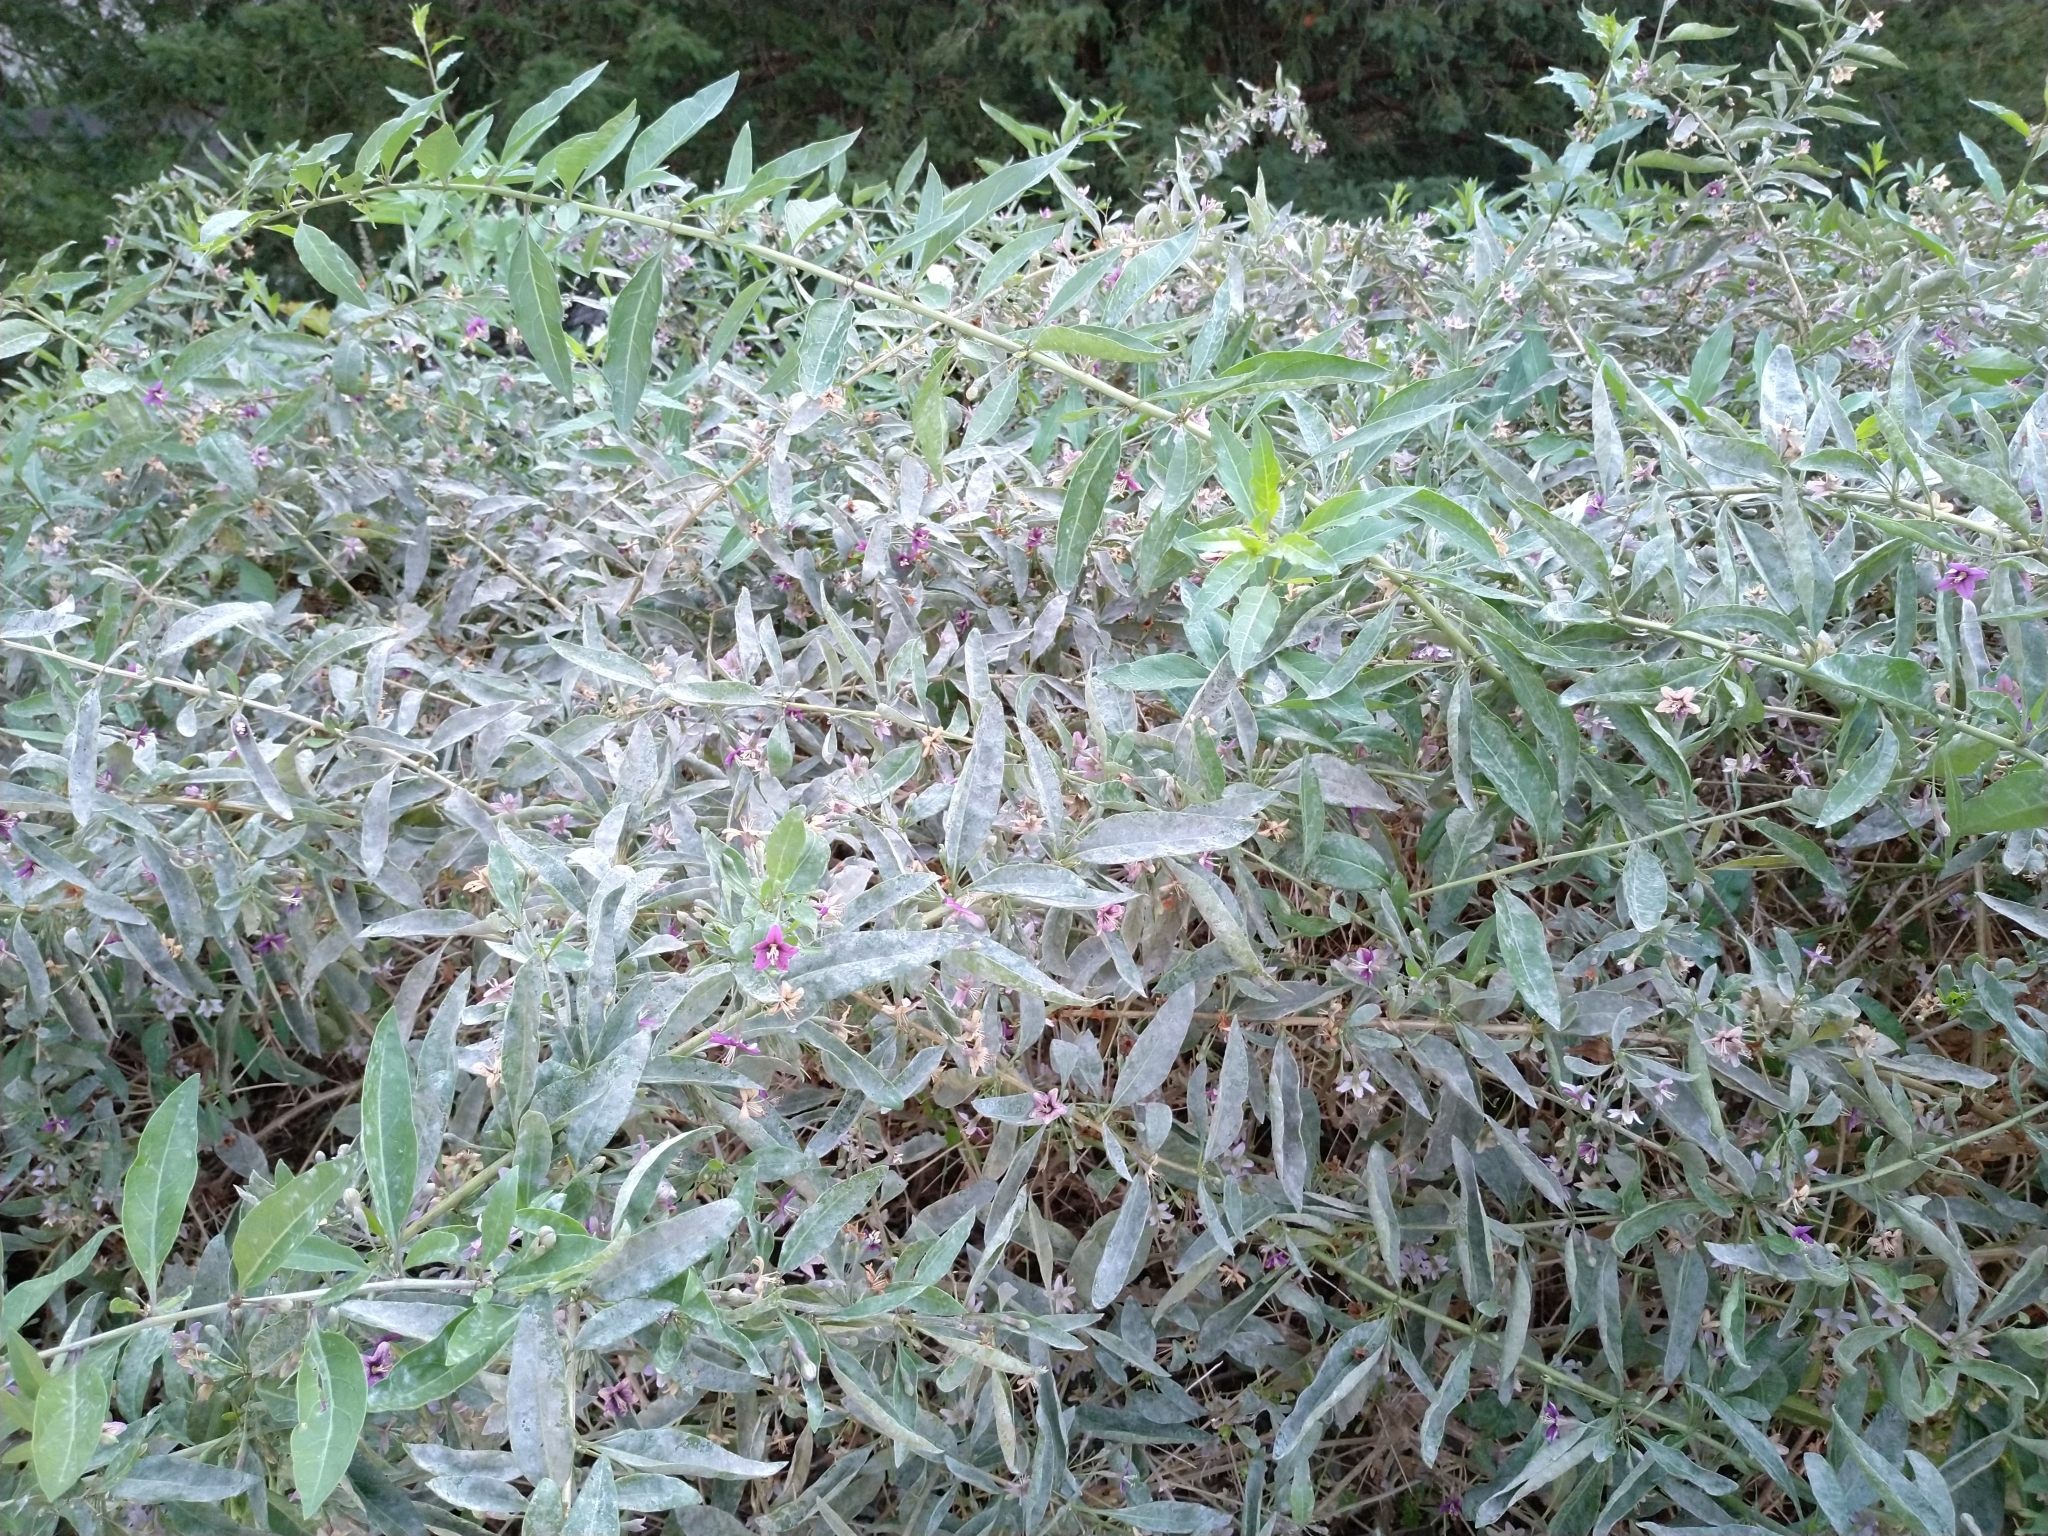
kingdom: Plantae
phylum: Tracheophyta
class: Magnoliopsida
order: Solanales
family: Solanaceae
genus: Lycium
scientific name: Lycium barbarum
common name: Duke of argyll's teaplant
